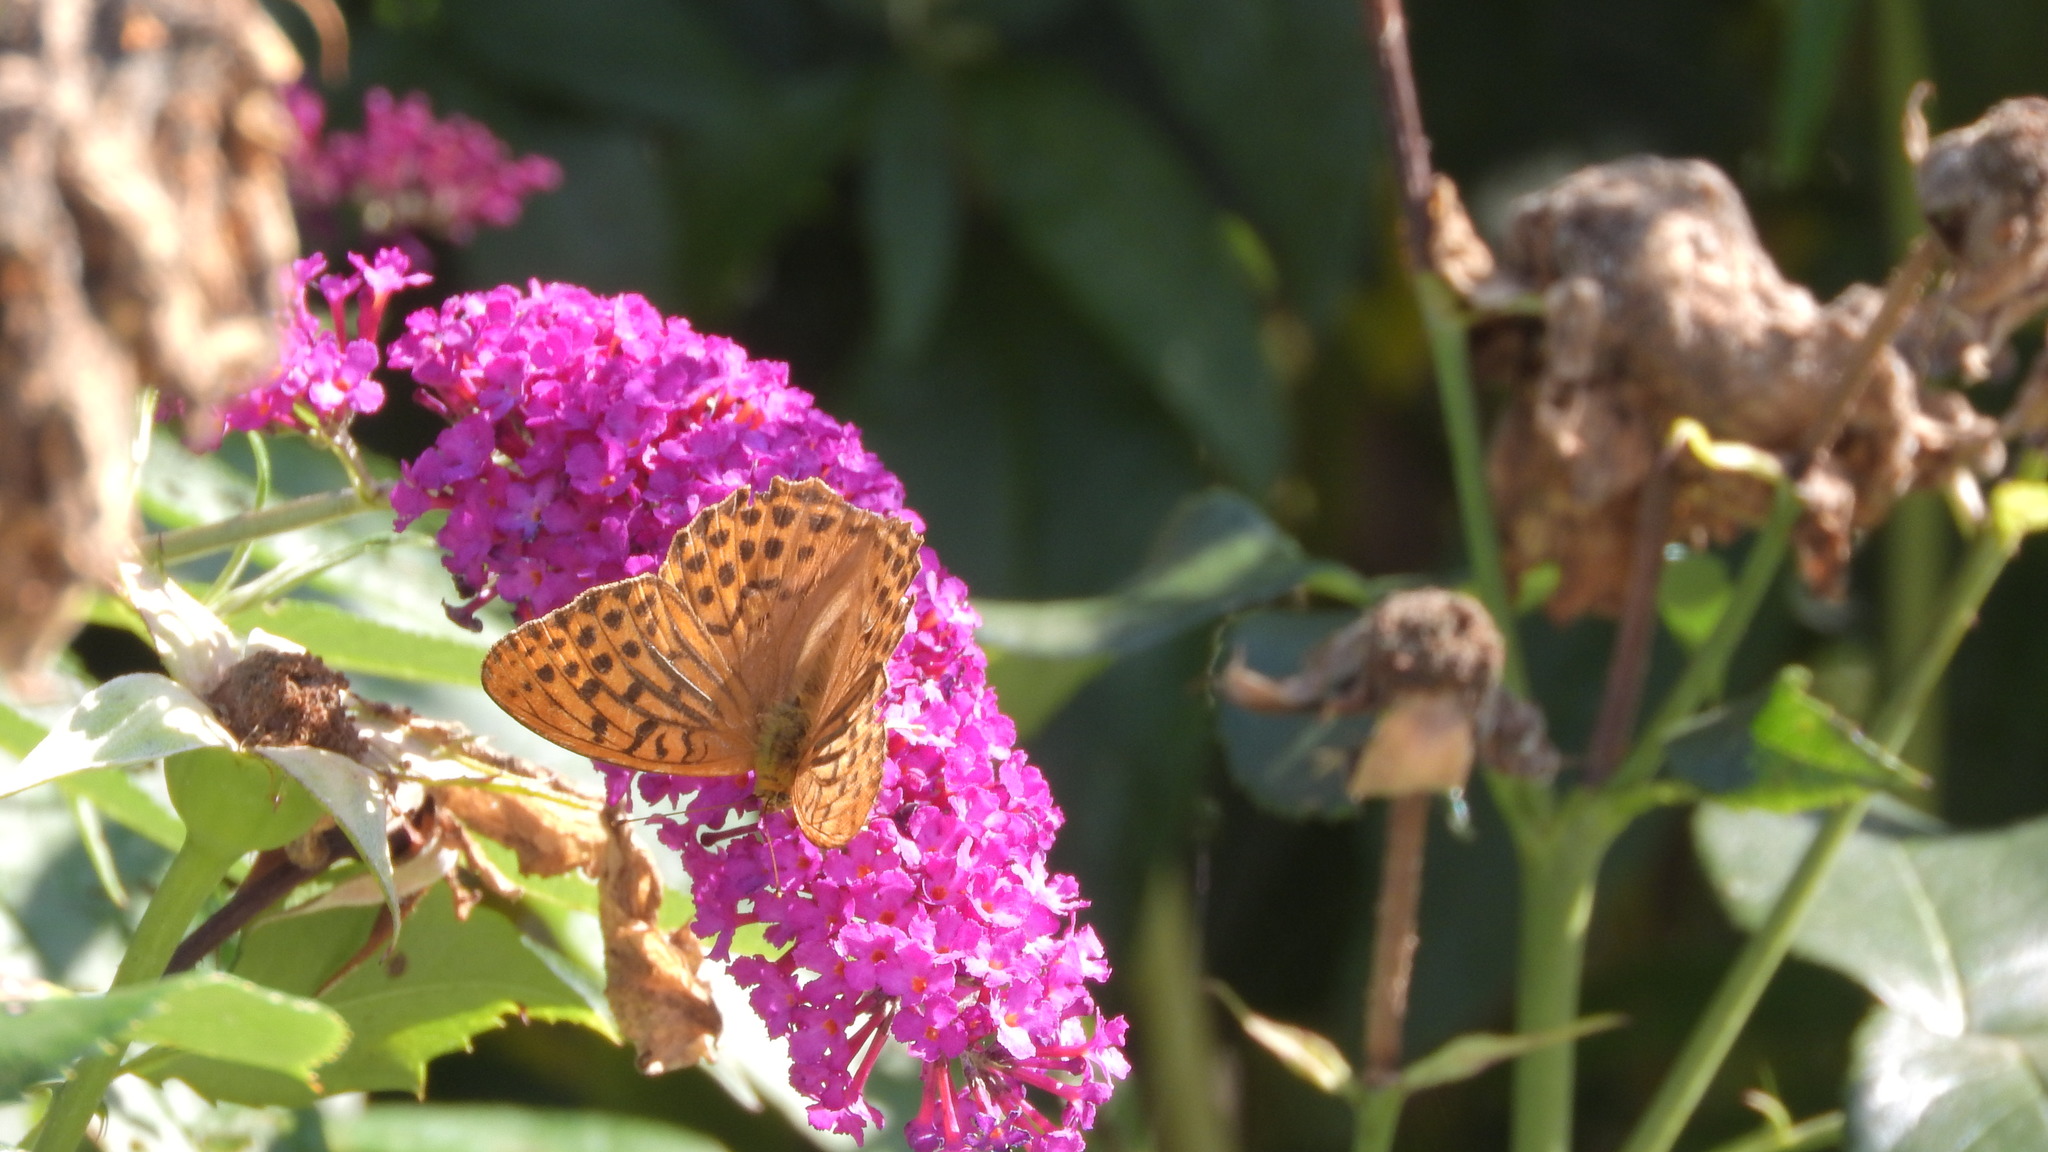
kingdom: Animalia
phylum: Arthropoda
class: Insecta
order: Lepidoptera
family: Nymphalidae
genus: Argynnis
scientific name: Argynnis paphia
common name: Silver-washed fritillary
